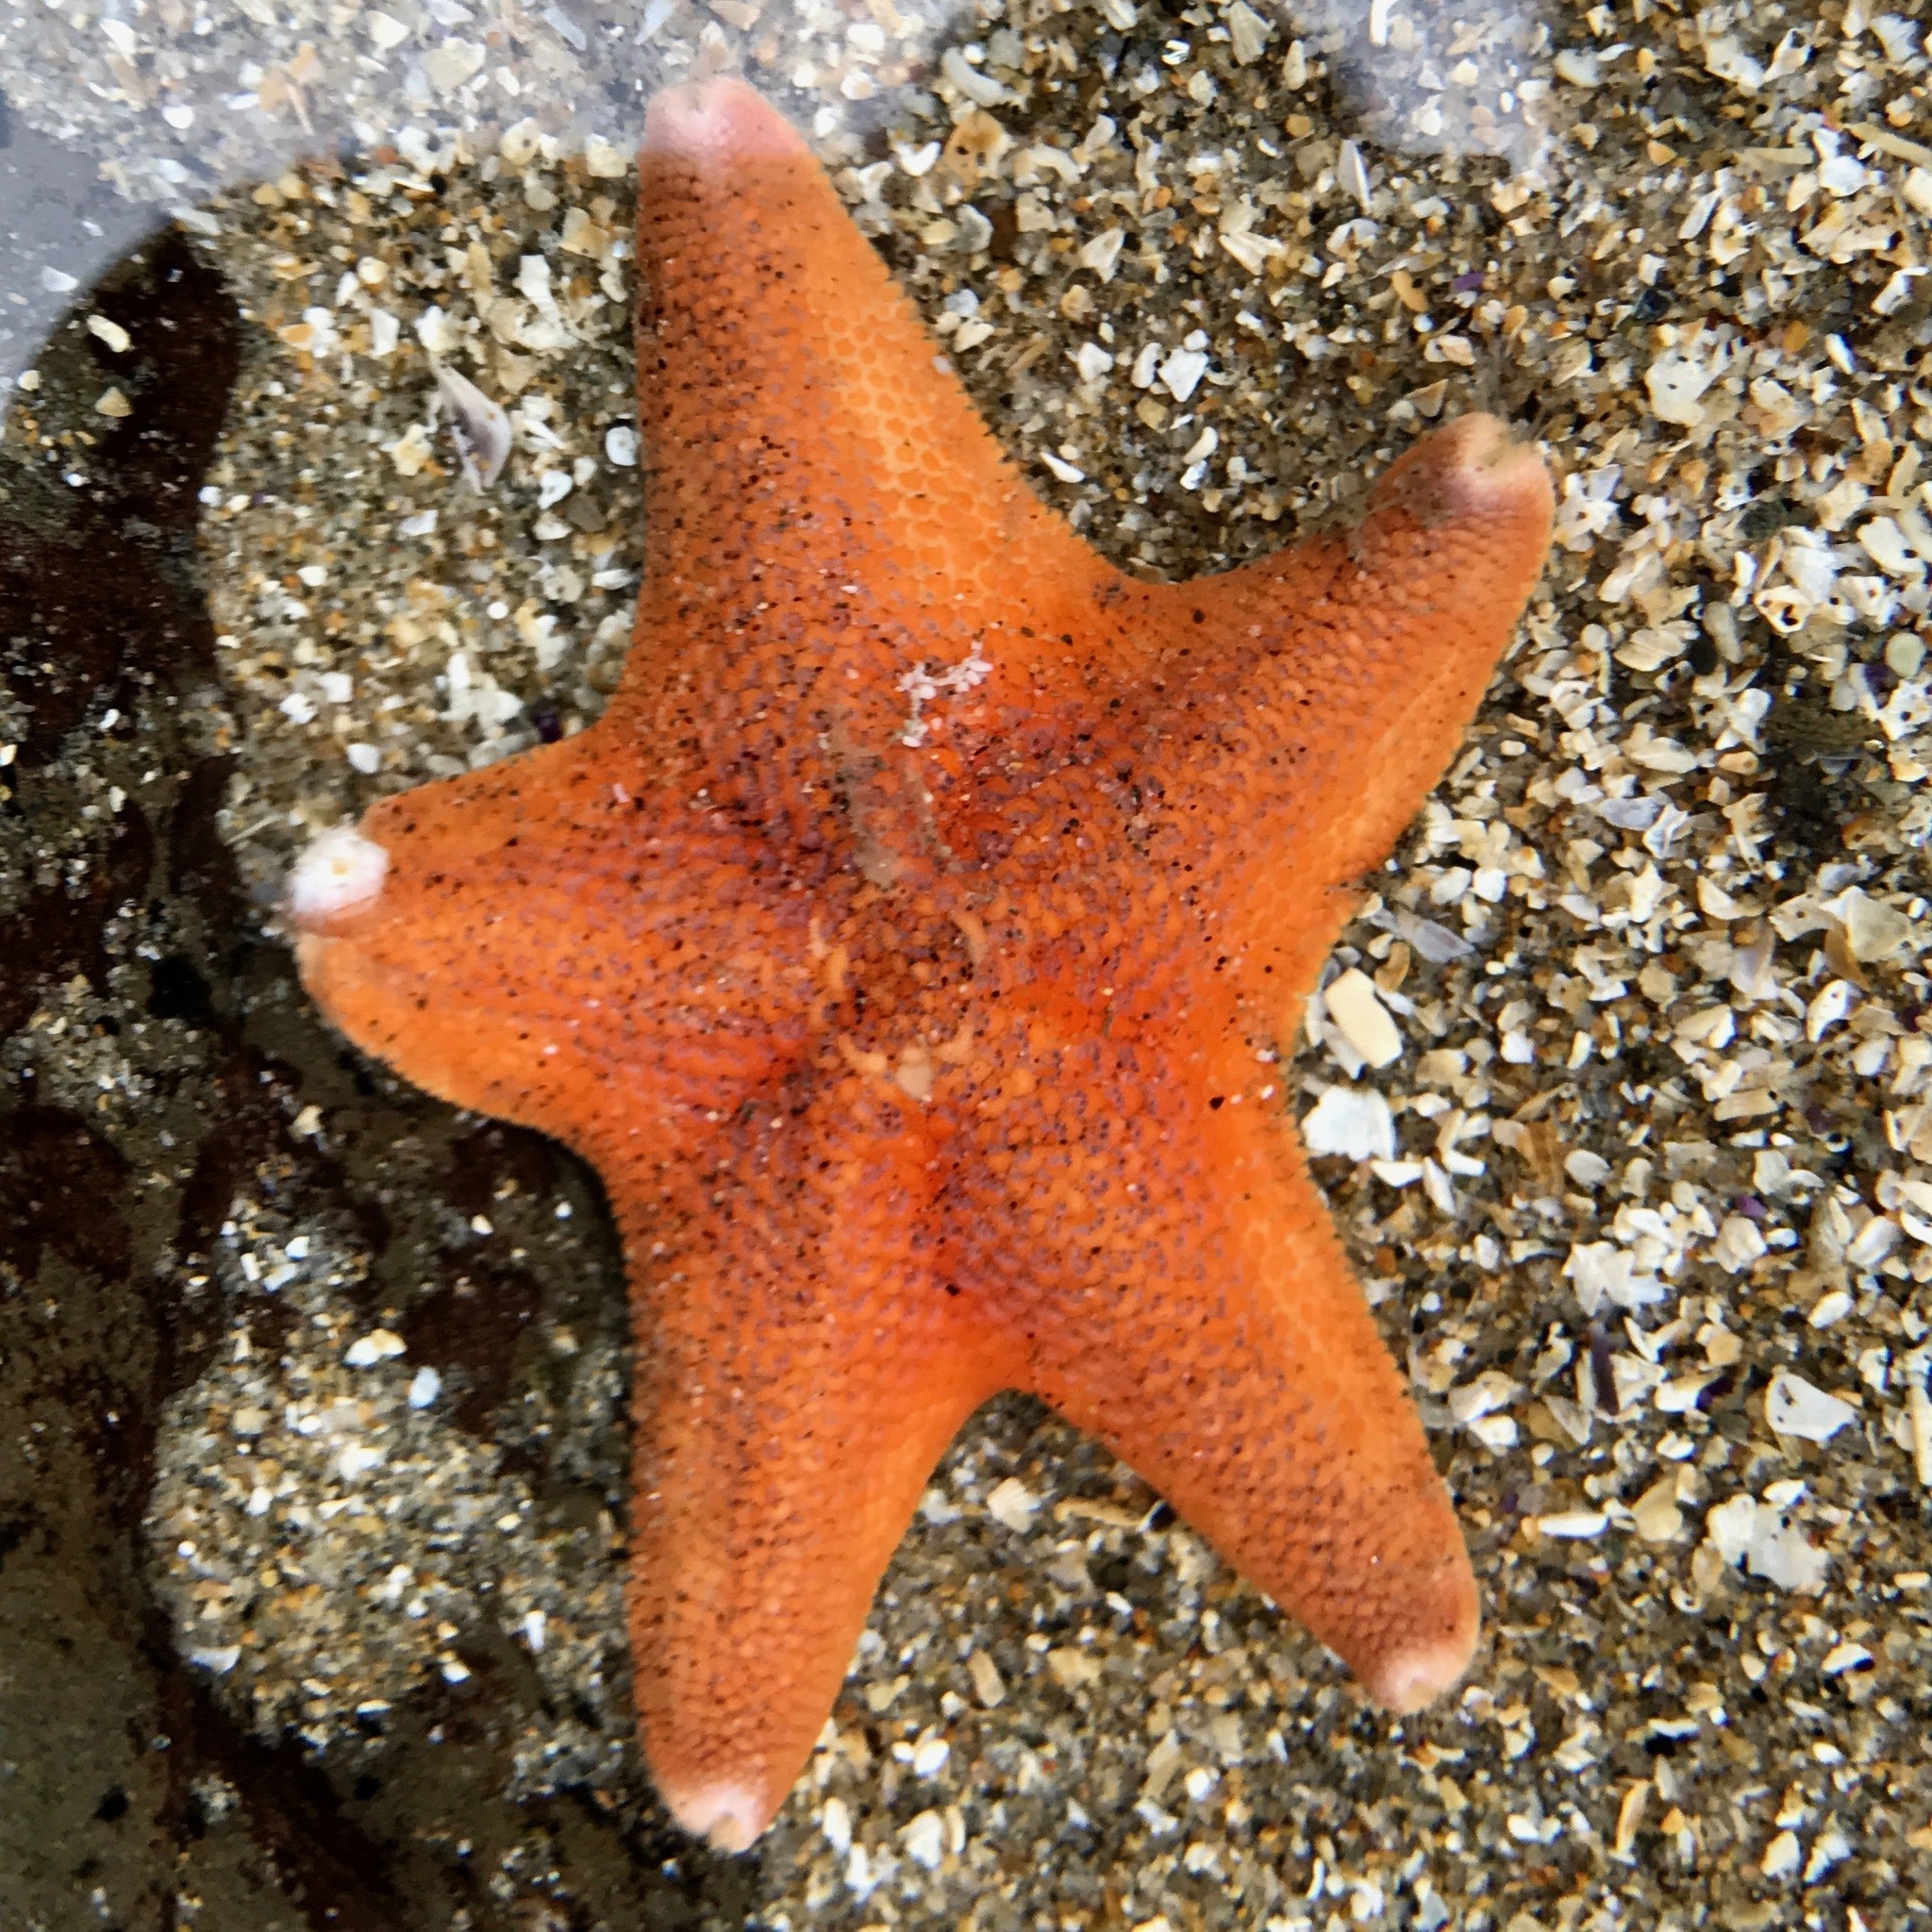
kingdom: Animalia
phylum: Echinodermata
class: Asteroidea
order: Valvatida
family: Asterinidae
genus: Patiria
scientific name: Patiria miniata
